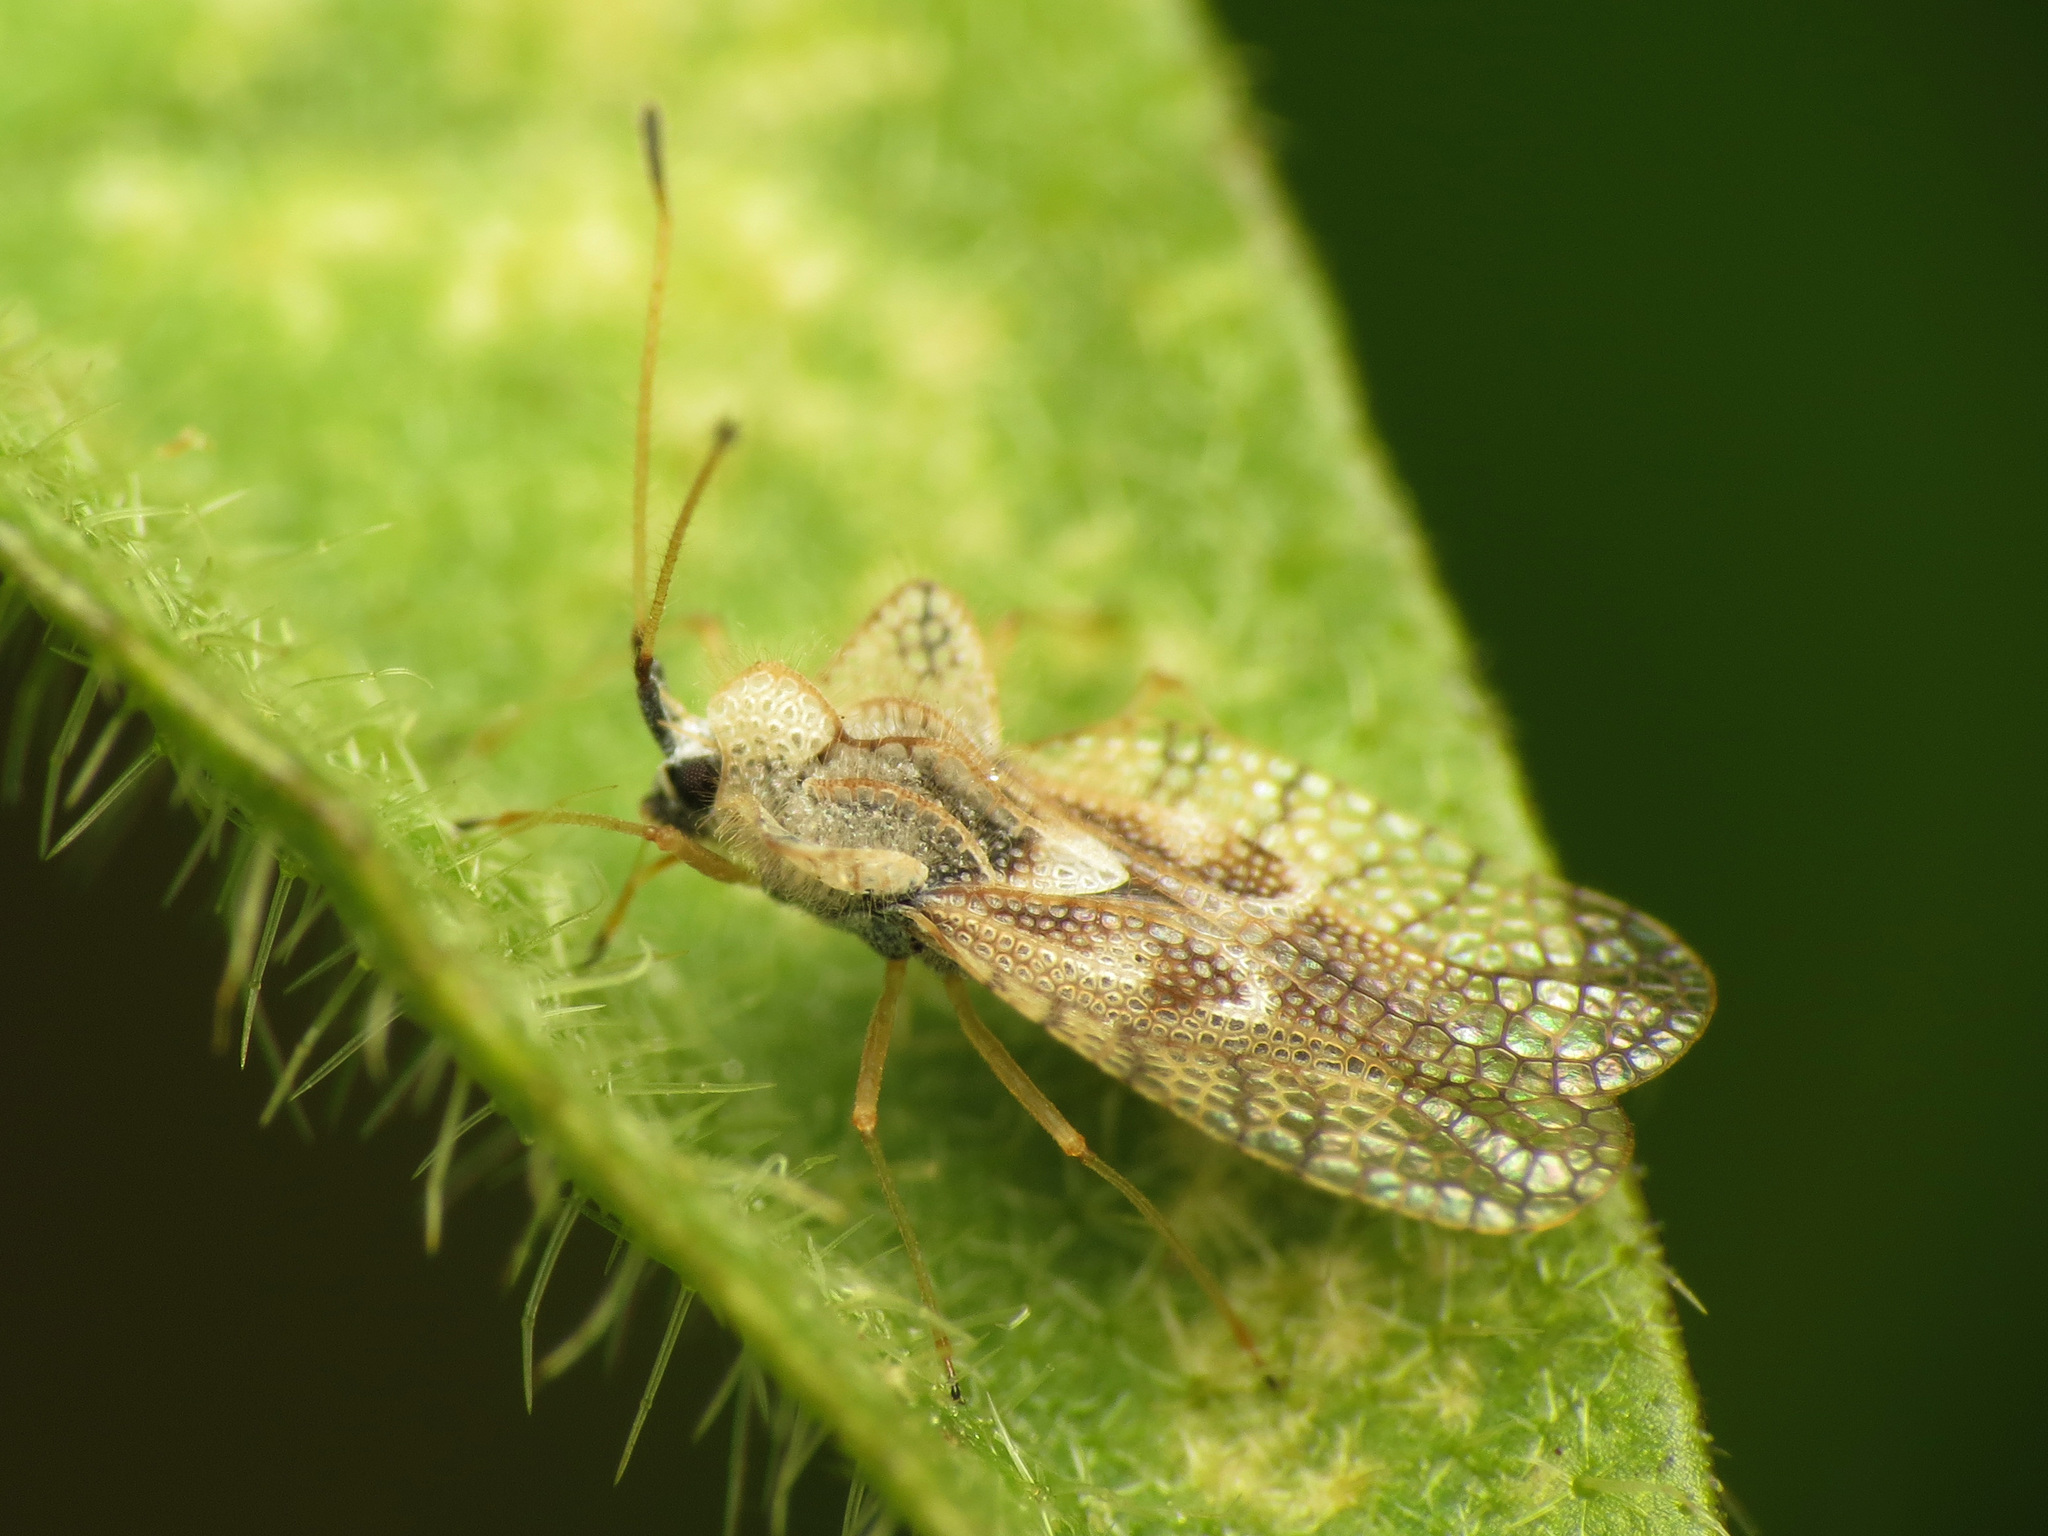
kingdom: Animalia
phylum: Arthropoda
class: Insecta
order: Hemiptera
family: Tingidae
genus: Gargaphia
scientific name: Gargaphia solani
